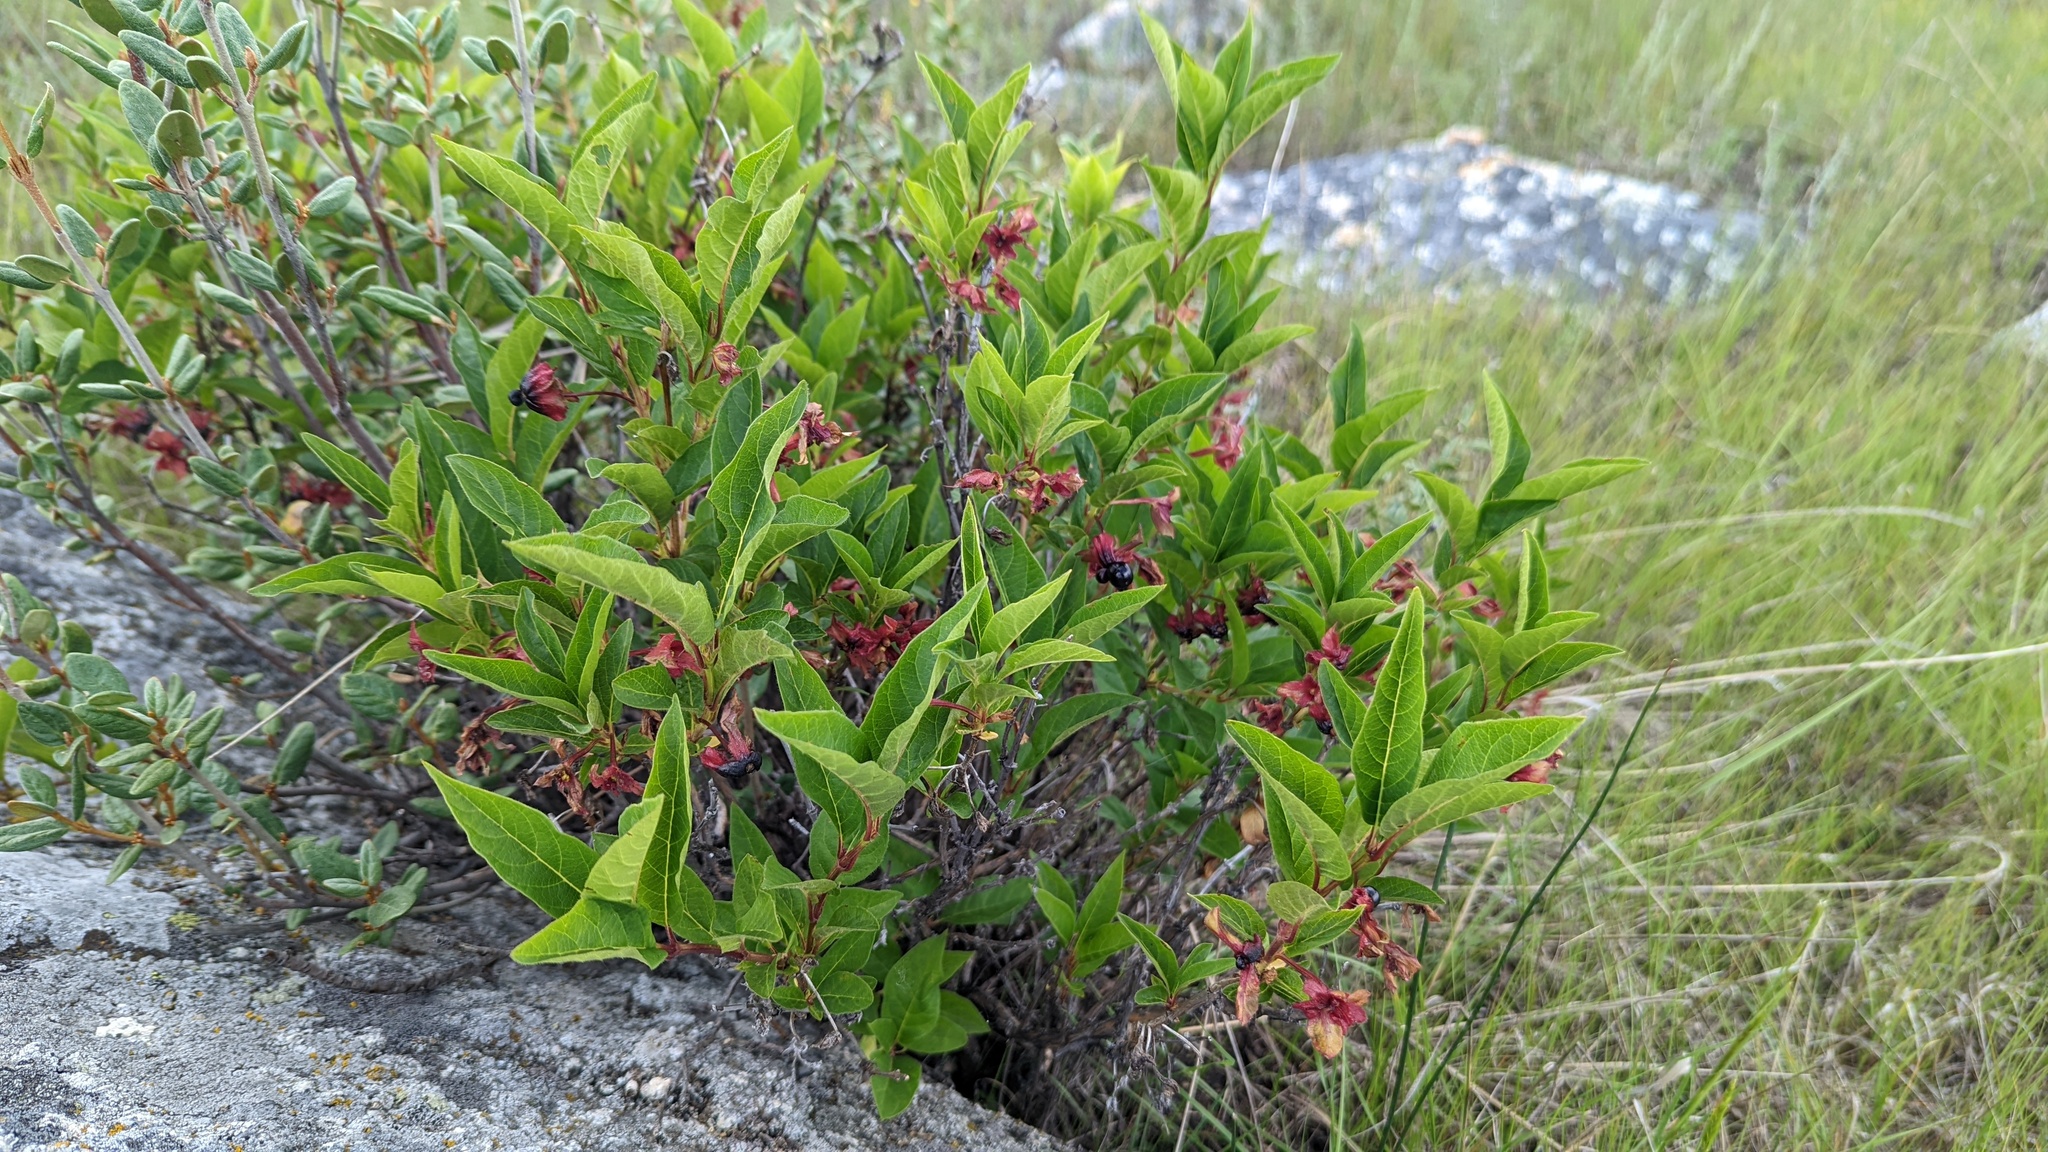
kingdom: Plantae
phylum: Tracheophyta
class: Magnoliopsida
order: Dipsacales
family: Caprifoliaceae
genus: Lonicera
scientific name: Lonicera involucrata
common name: Californian honeysuckle
